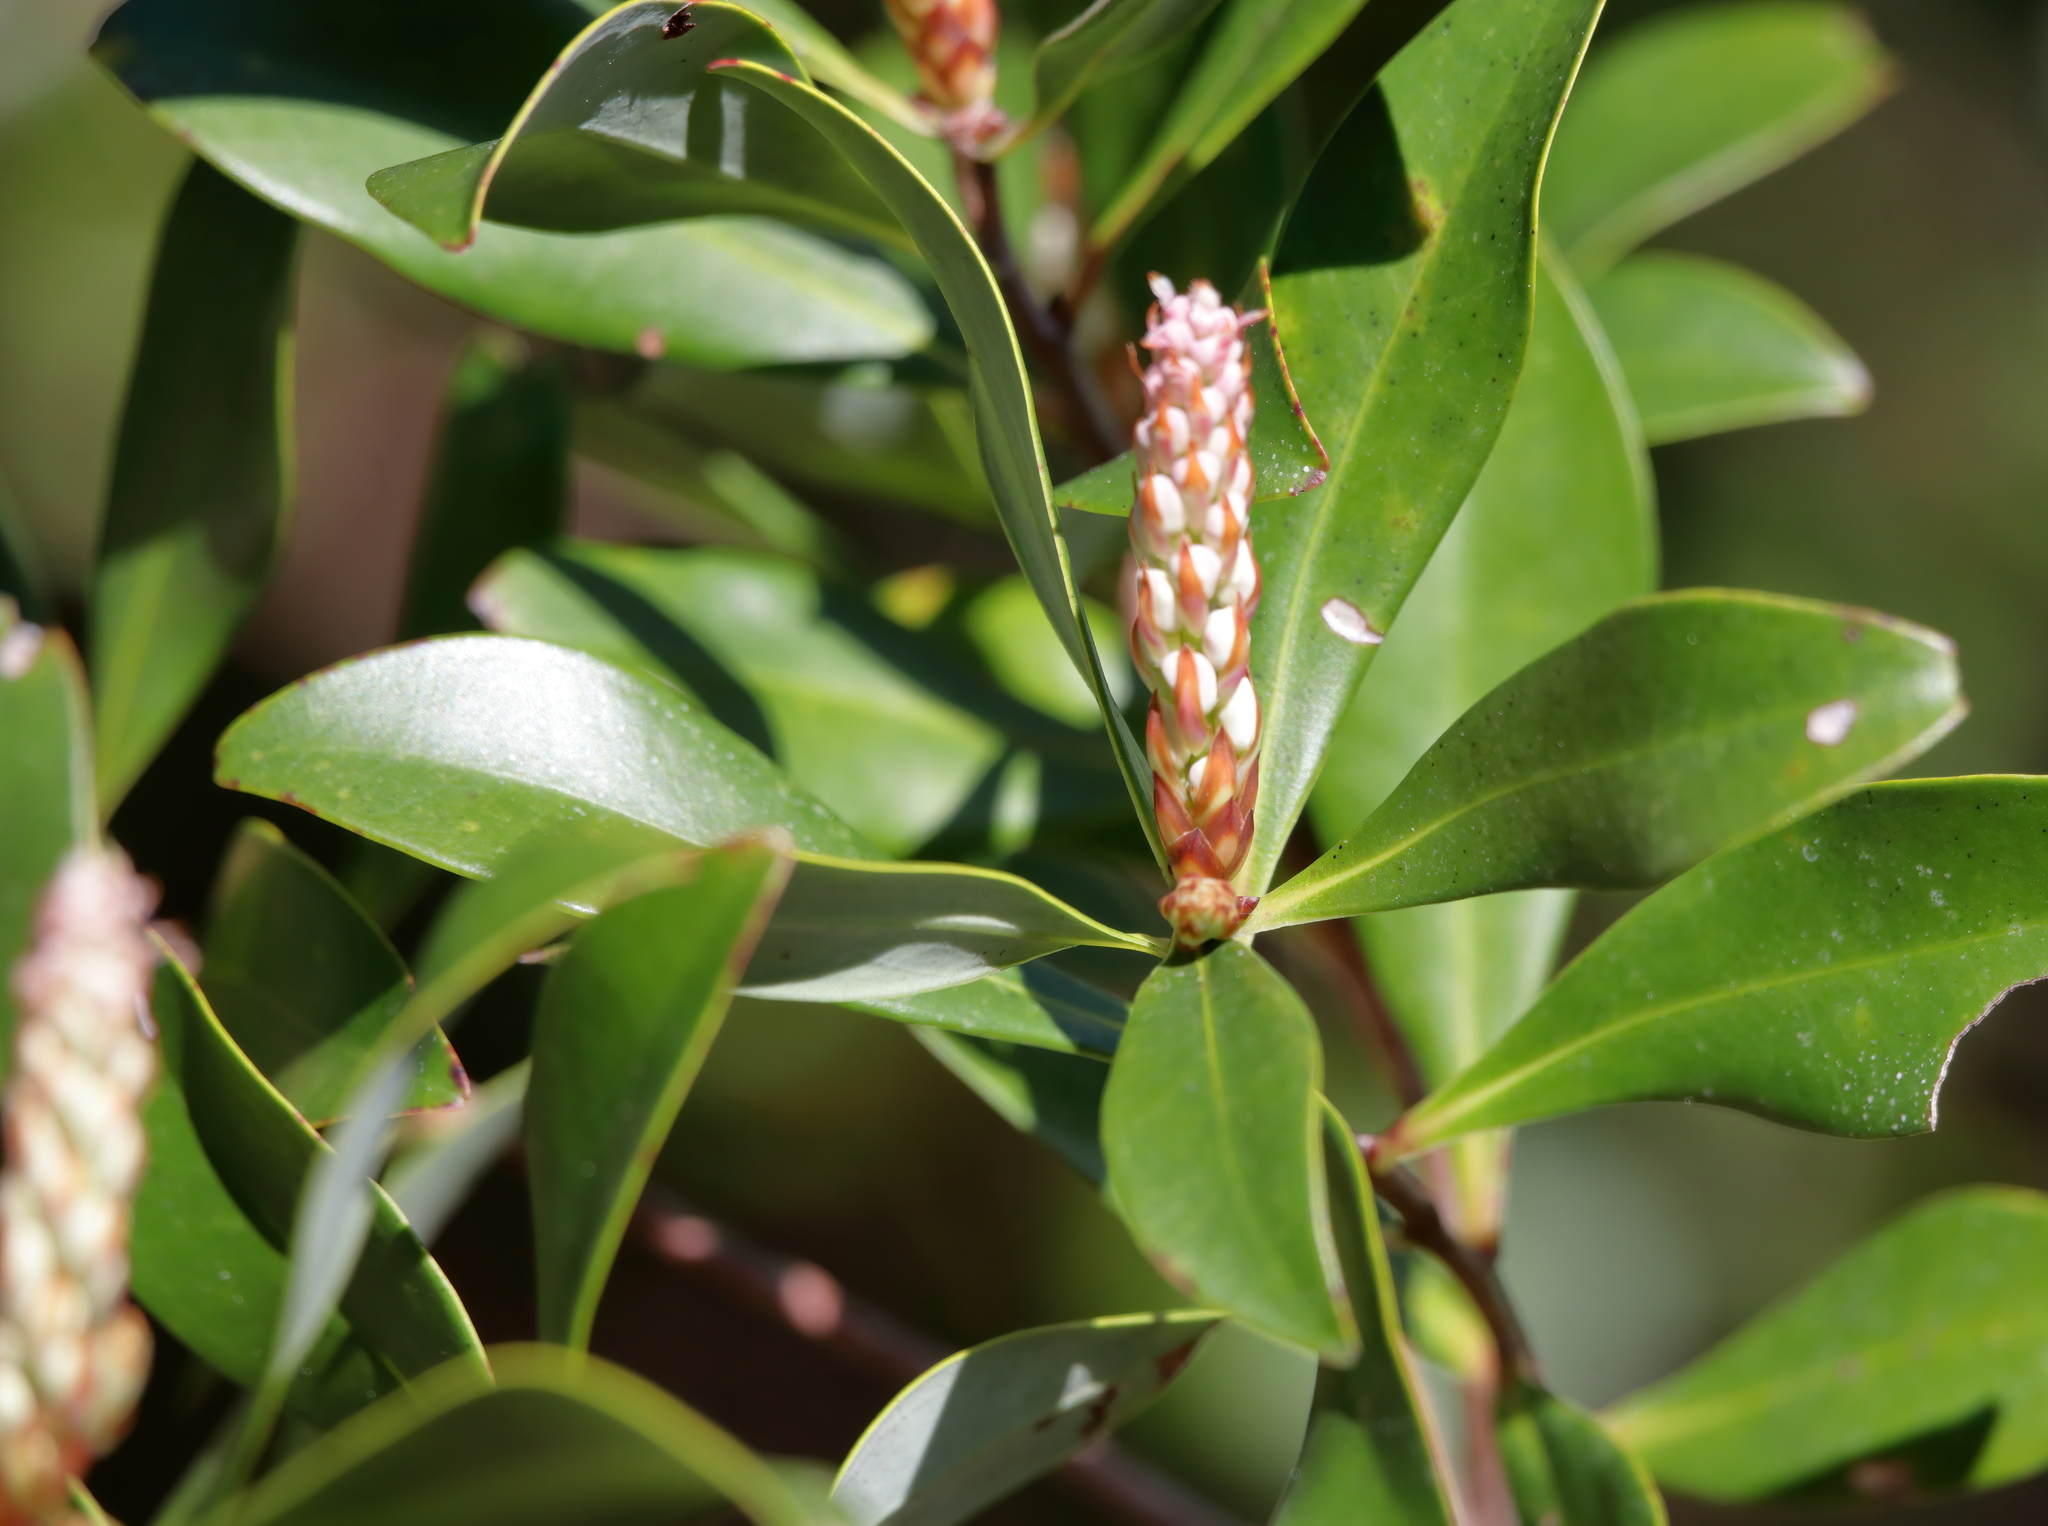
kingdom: Plantae
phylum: Tracheophyta
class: Magnoliopsida
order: Ericales
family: Cyrillaceae
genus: Cliftonia
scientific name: Cliftonia monophylla
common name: Titi
